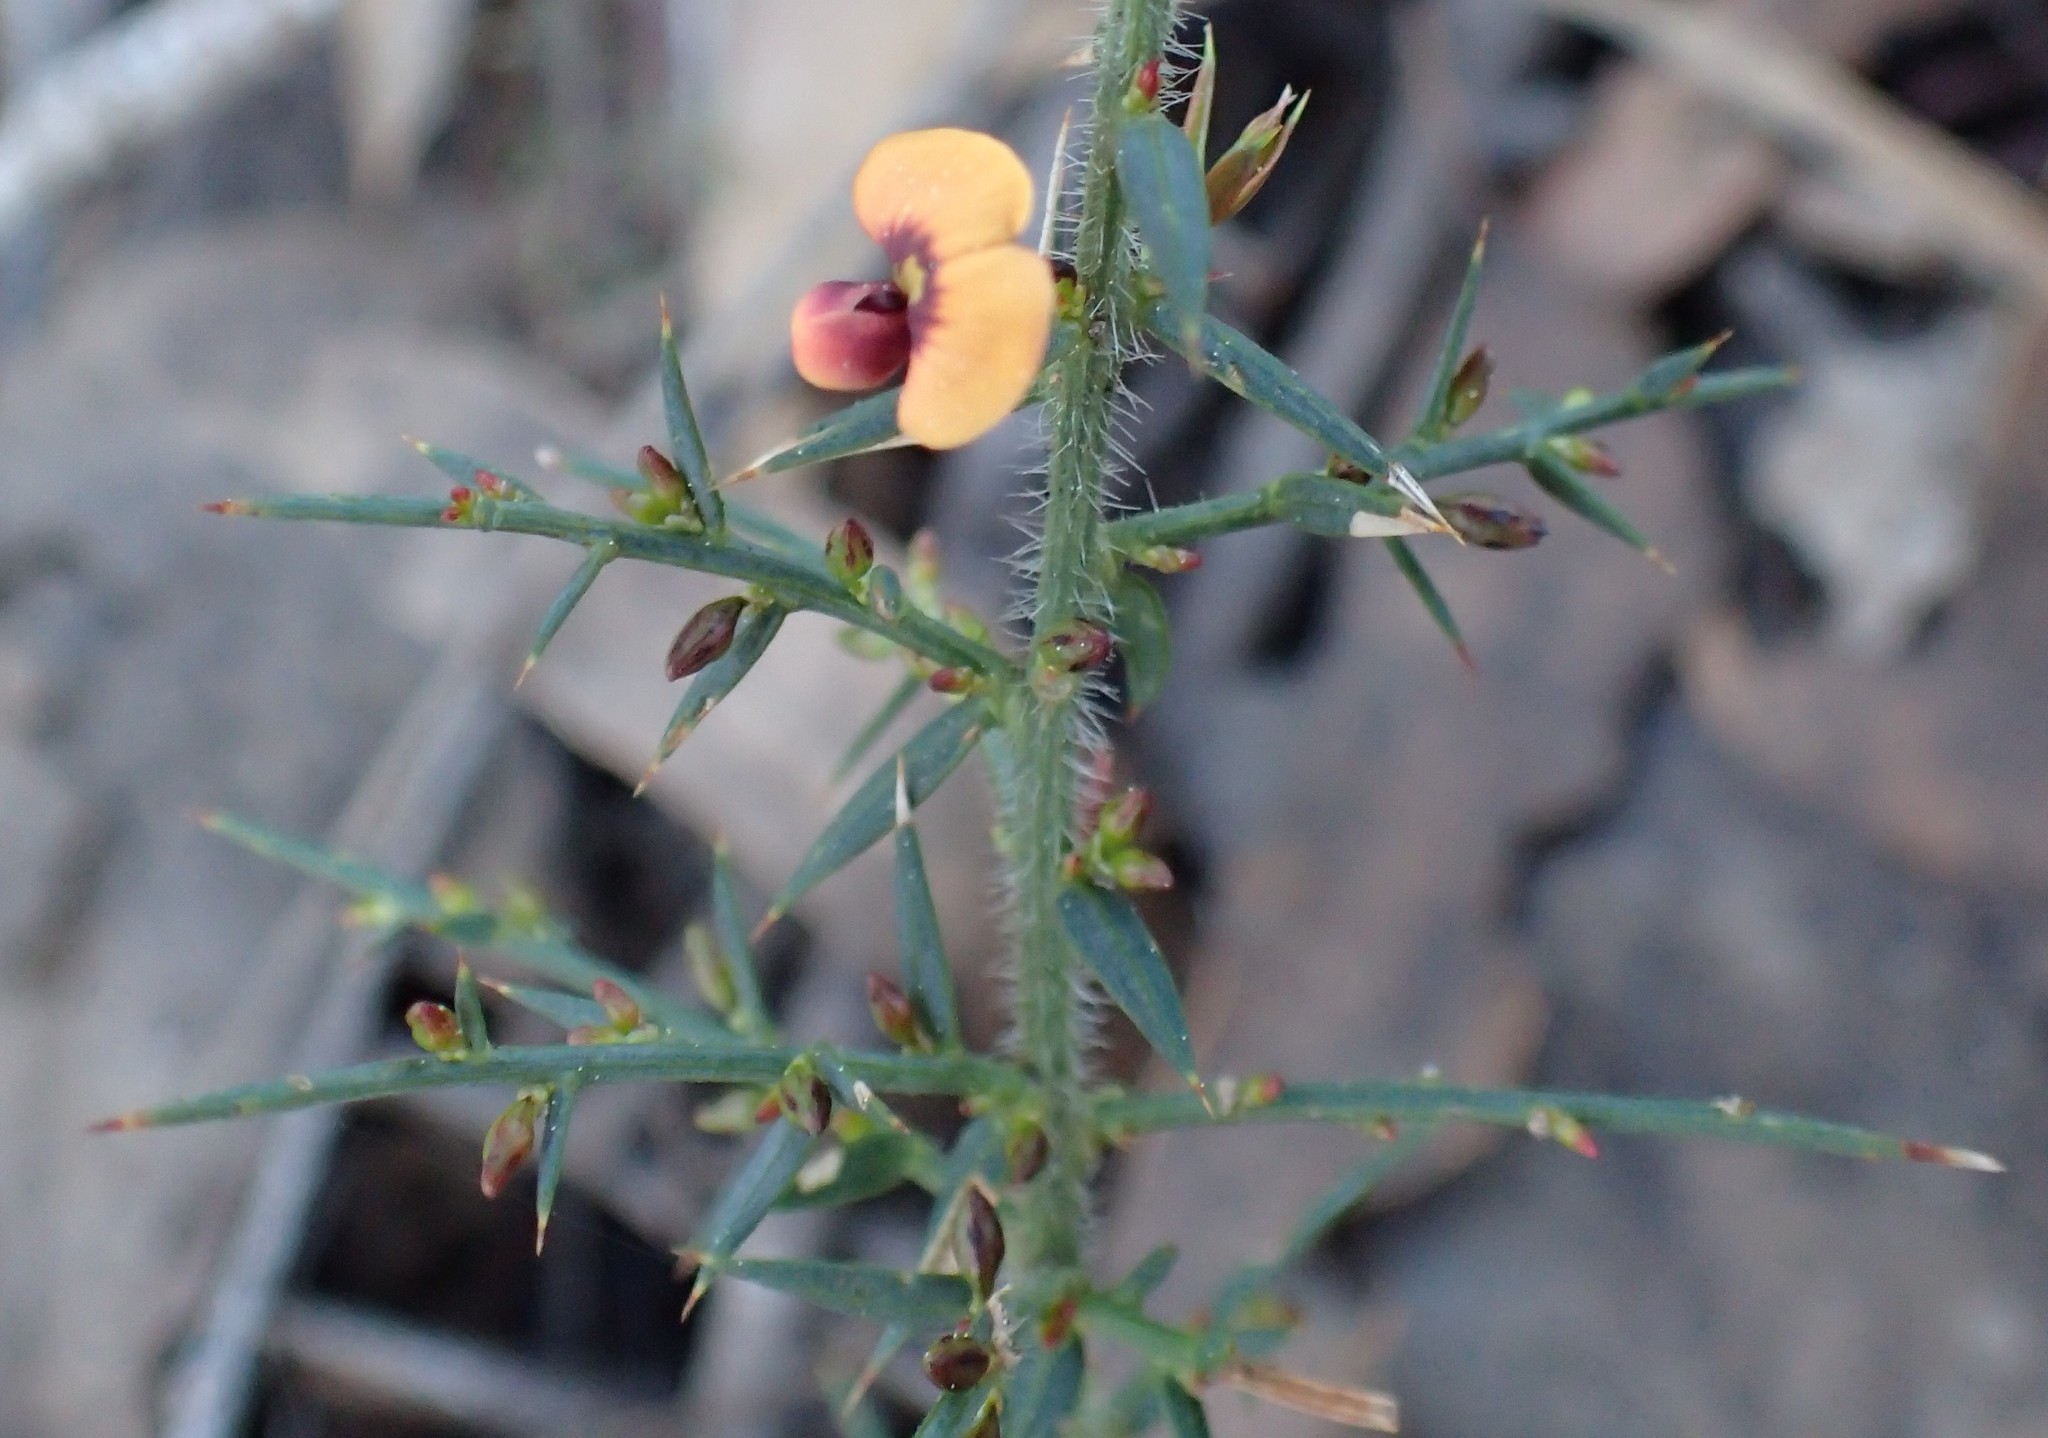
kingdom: Plantae
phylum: Tracheophyta
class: Magnoliopsida
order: Fabales
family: Fabaceae
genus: Daviesia
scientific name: Daviesia ulicifolia
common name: Gorse bitter-pea
